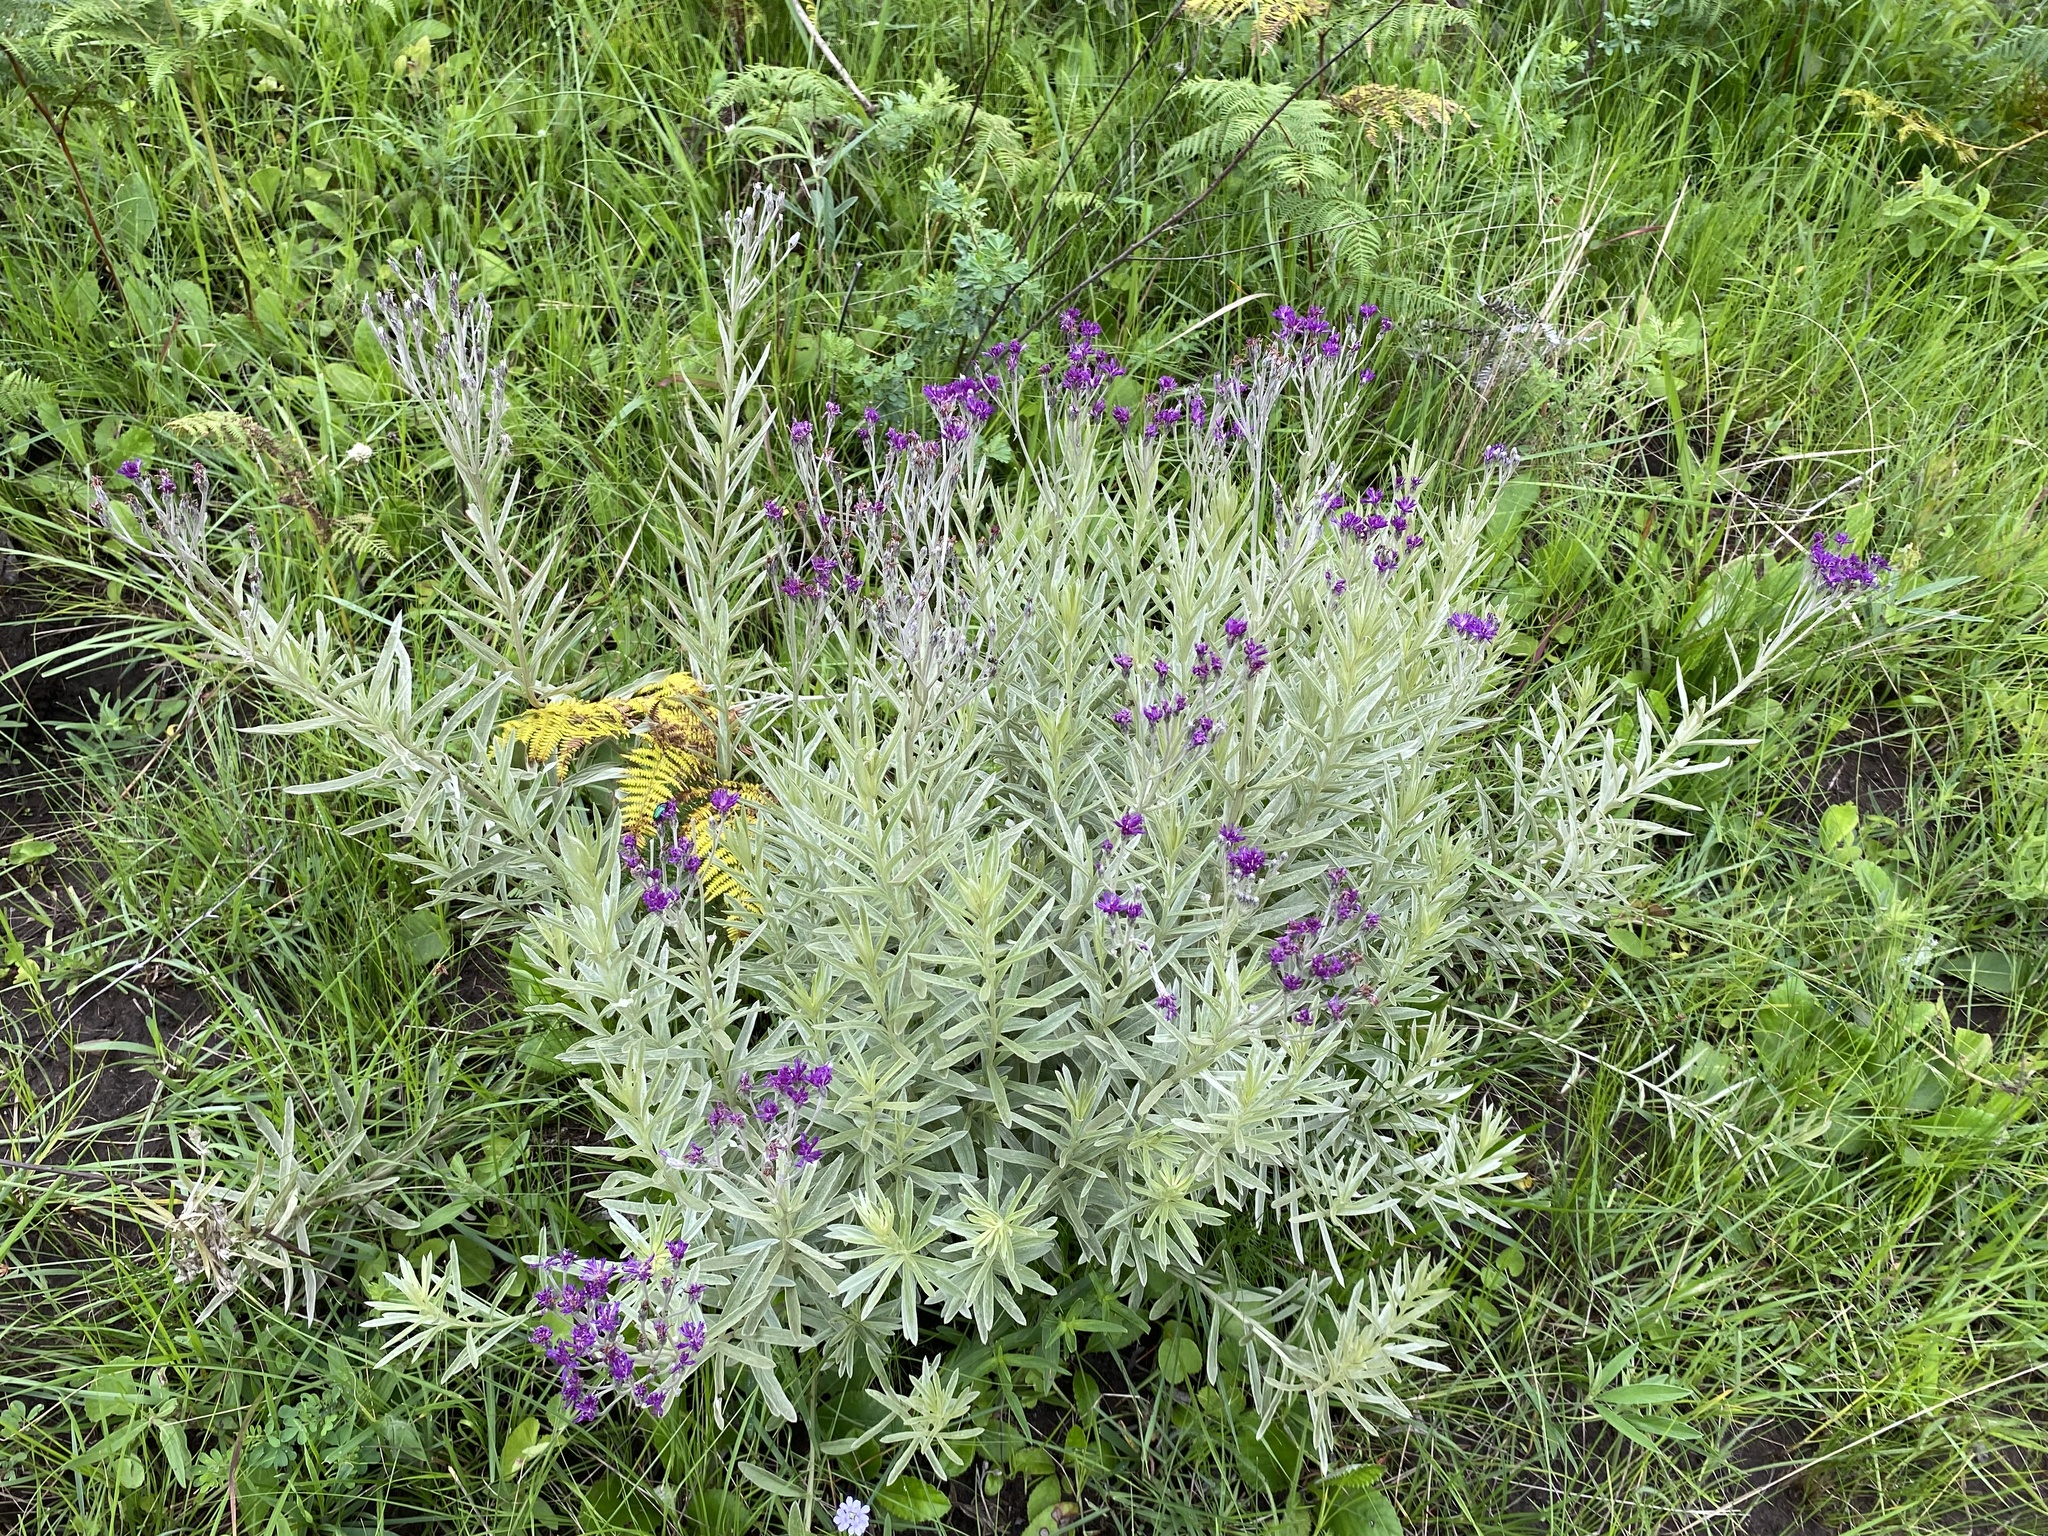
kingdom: Plantae
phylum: Tracheophyta
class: Magnoliopsida
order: Asterales
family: Asteraceae
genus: Hilliardiella
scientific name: Hilliardiella aristata
